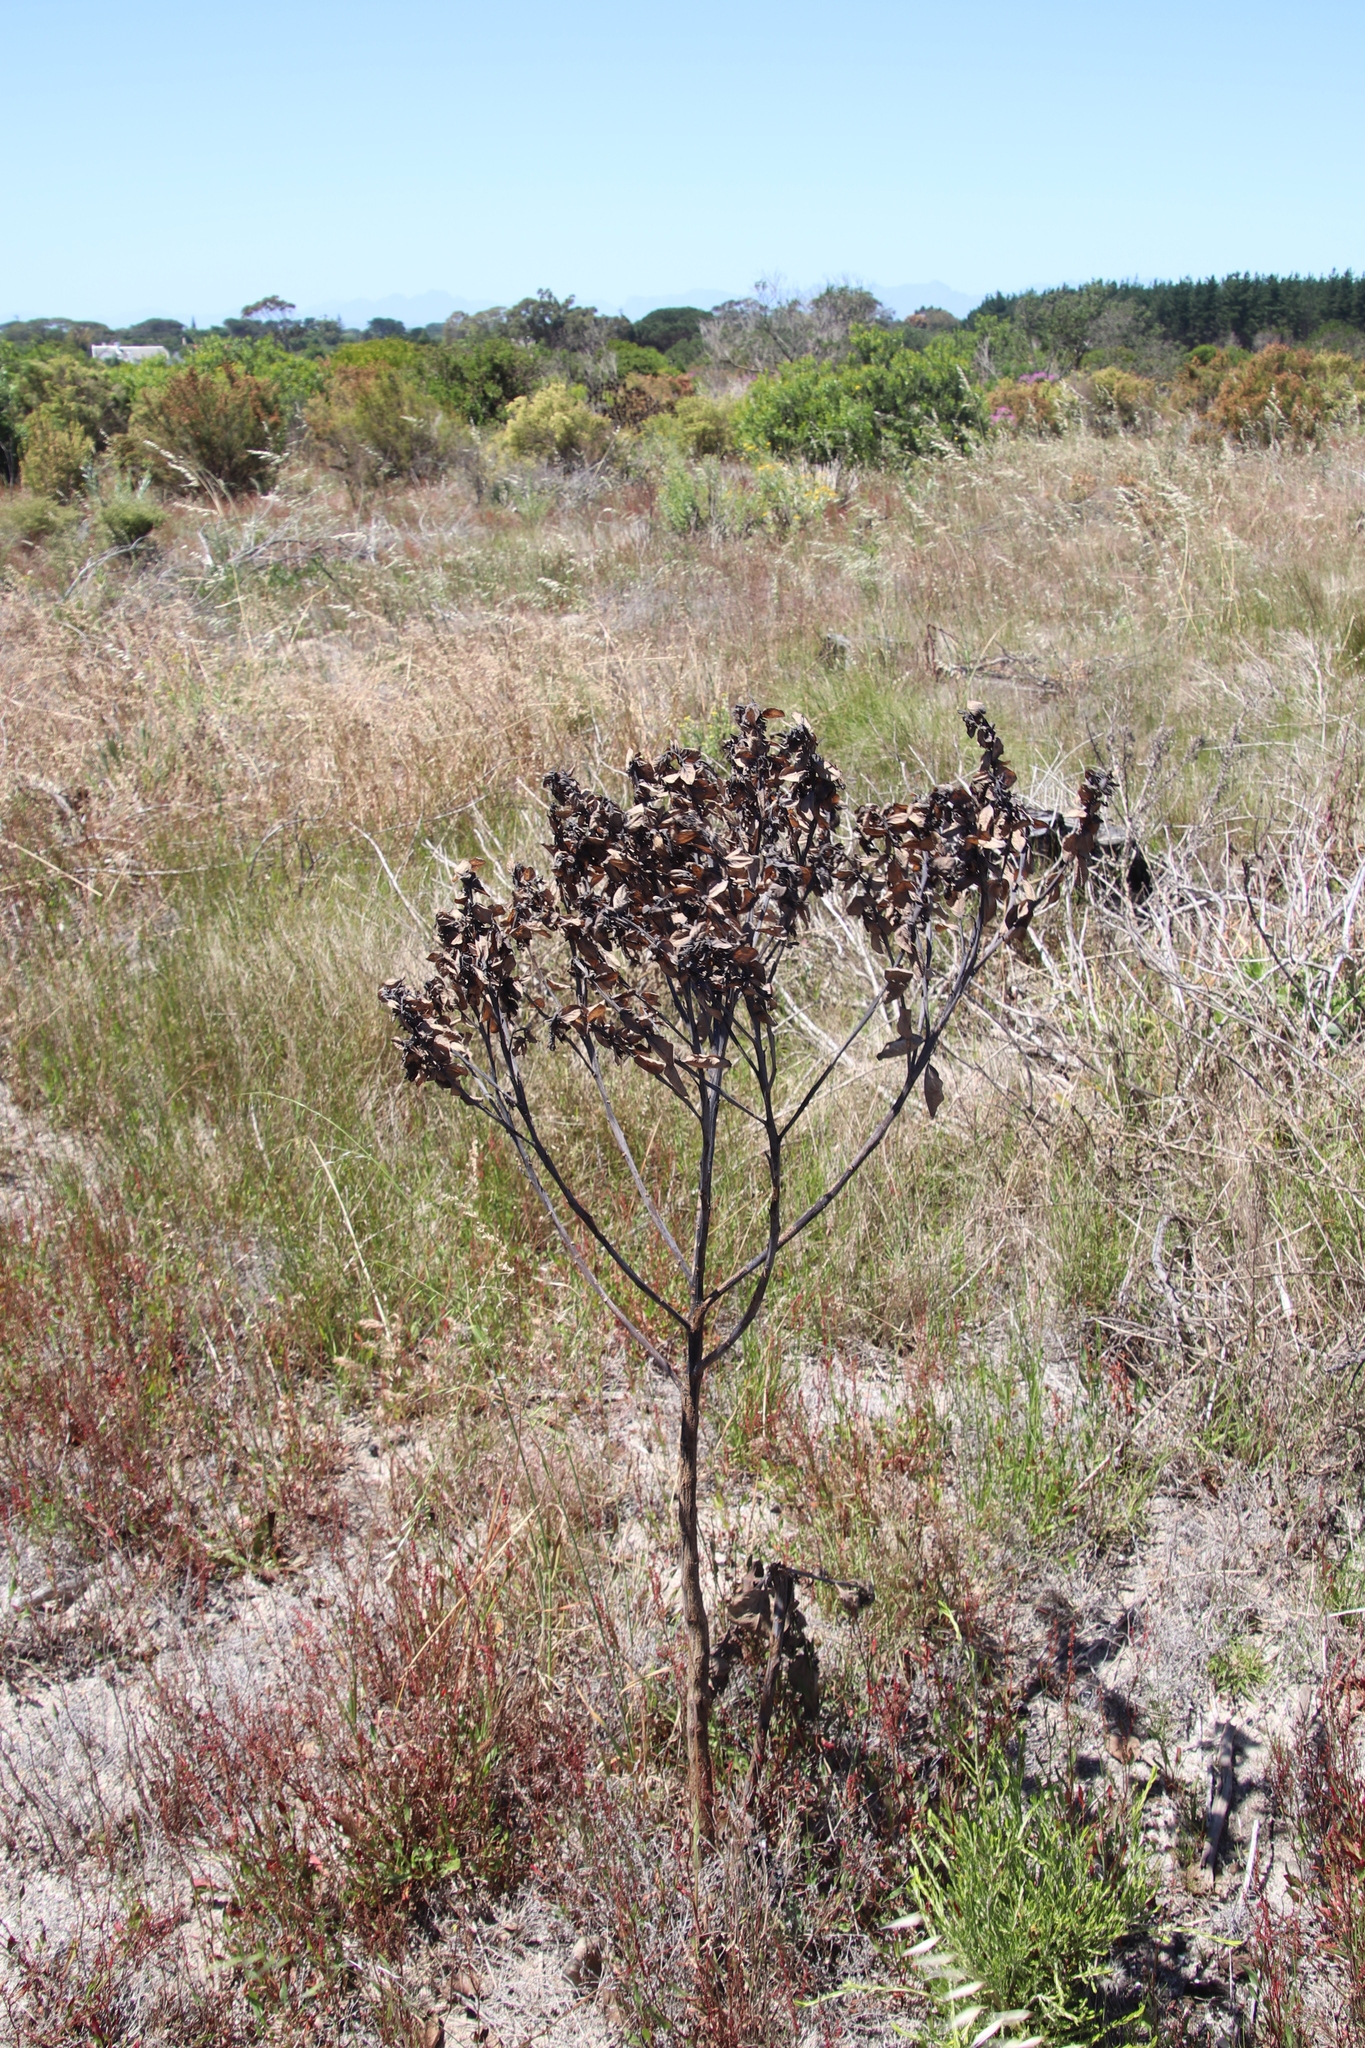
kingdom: Plantae
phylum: Tracheophyta
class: Magnoliopsida
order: Fabales
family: Fabaceae
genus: Rafnia
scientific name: Rafnia triflora
